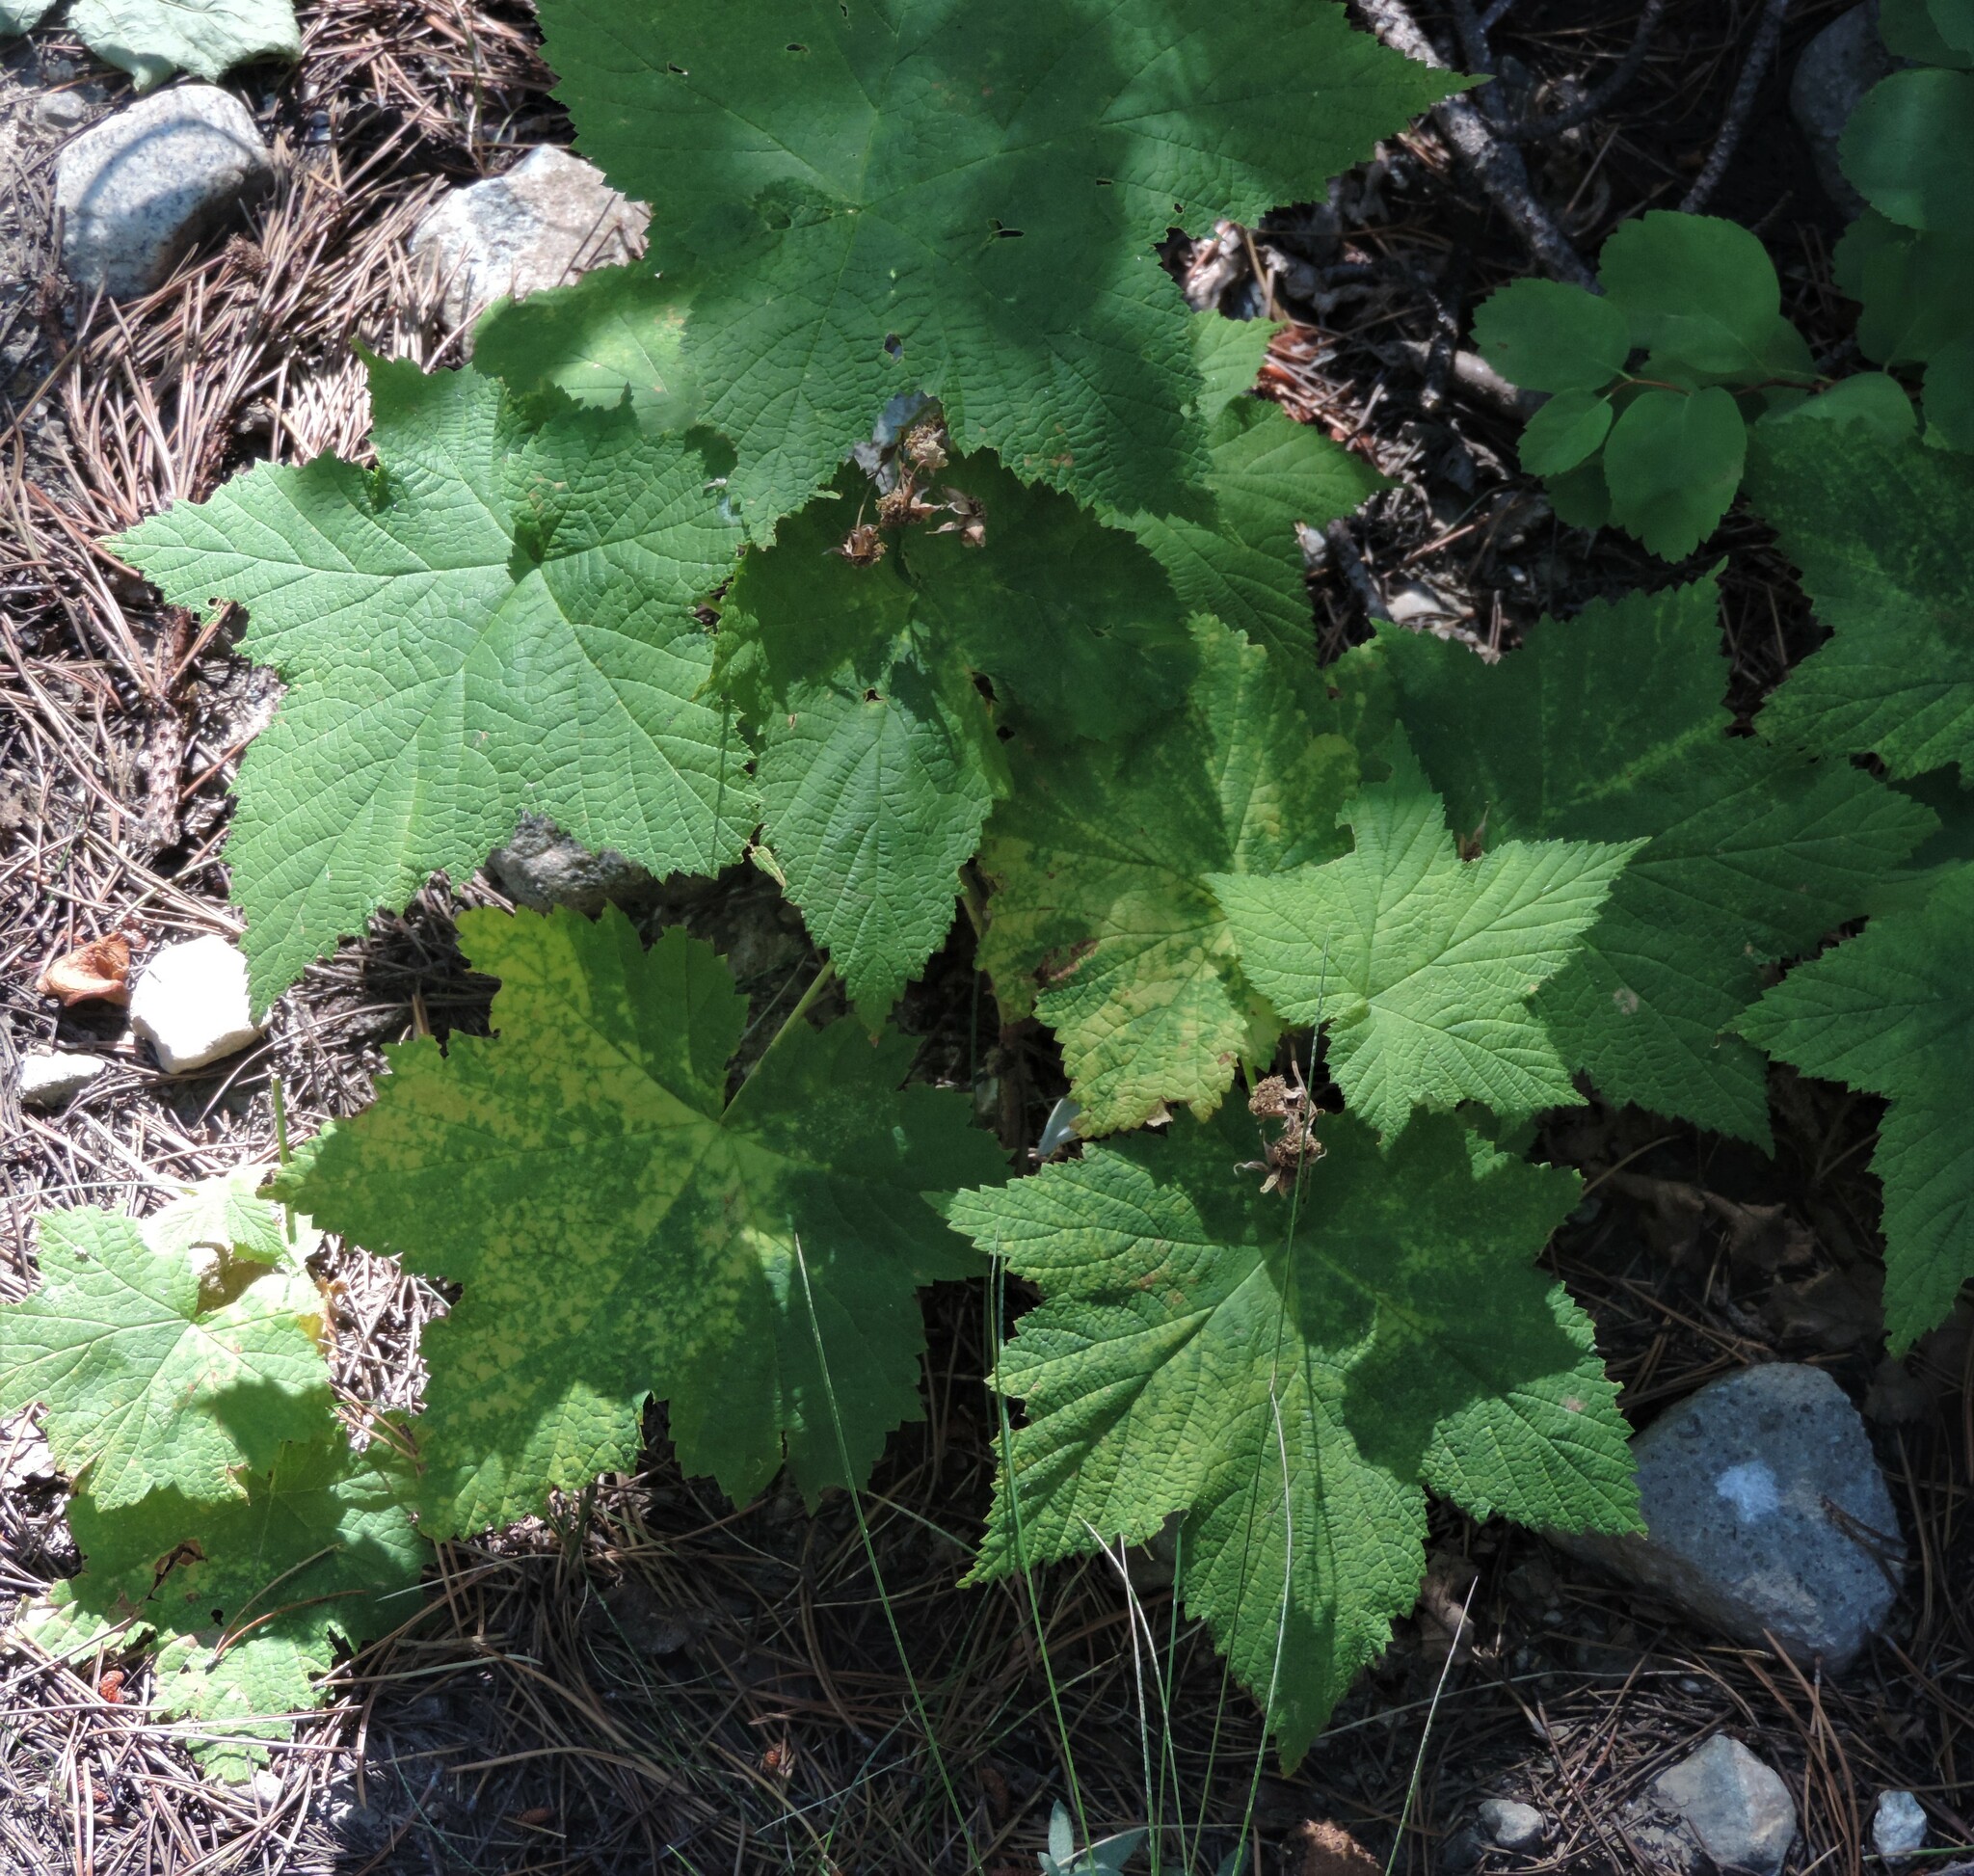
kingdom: Plantae
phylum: Tracheophyta
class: Magnoliopsida
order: Rosales
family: Rosaceae
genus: Rubus
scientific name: Rubus parviflorus
